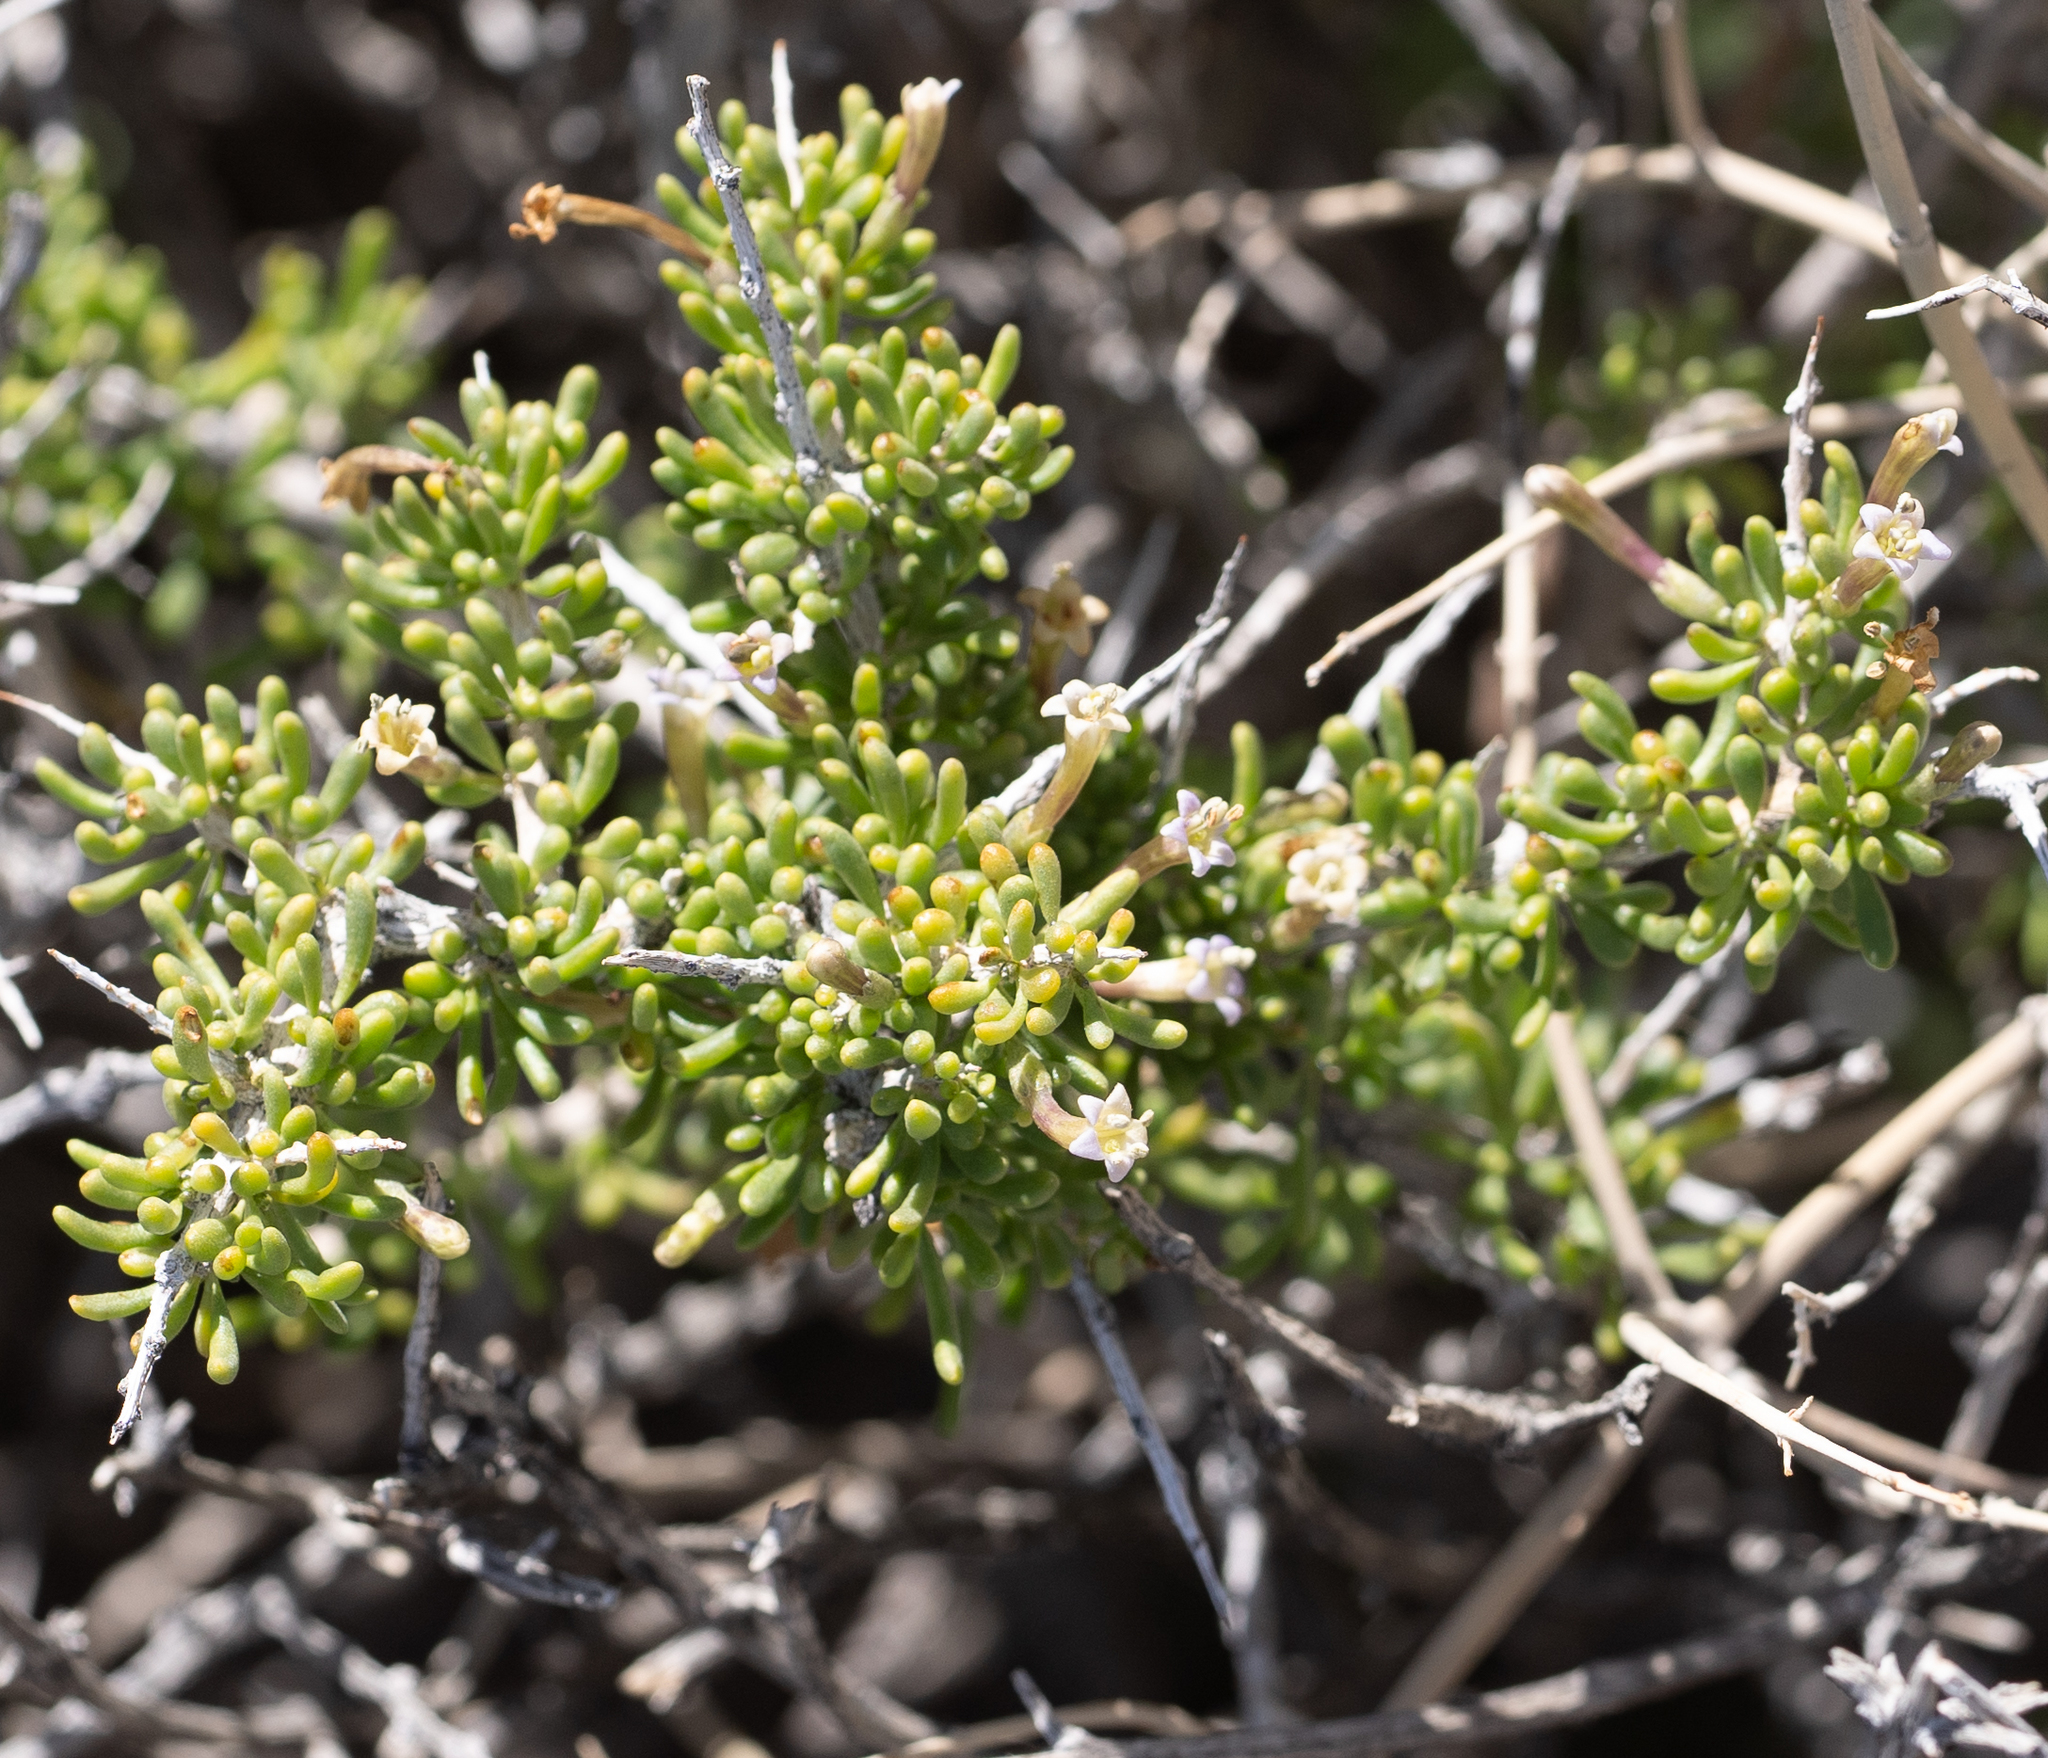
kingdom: Plantae
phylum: Tracheophyta
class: Magnoliopsida
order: Solanales
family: Solanaceae
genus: Lycium
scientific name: Lycium andersonii
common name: Water-jacket
